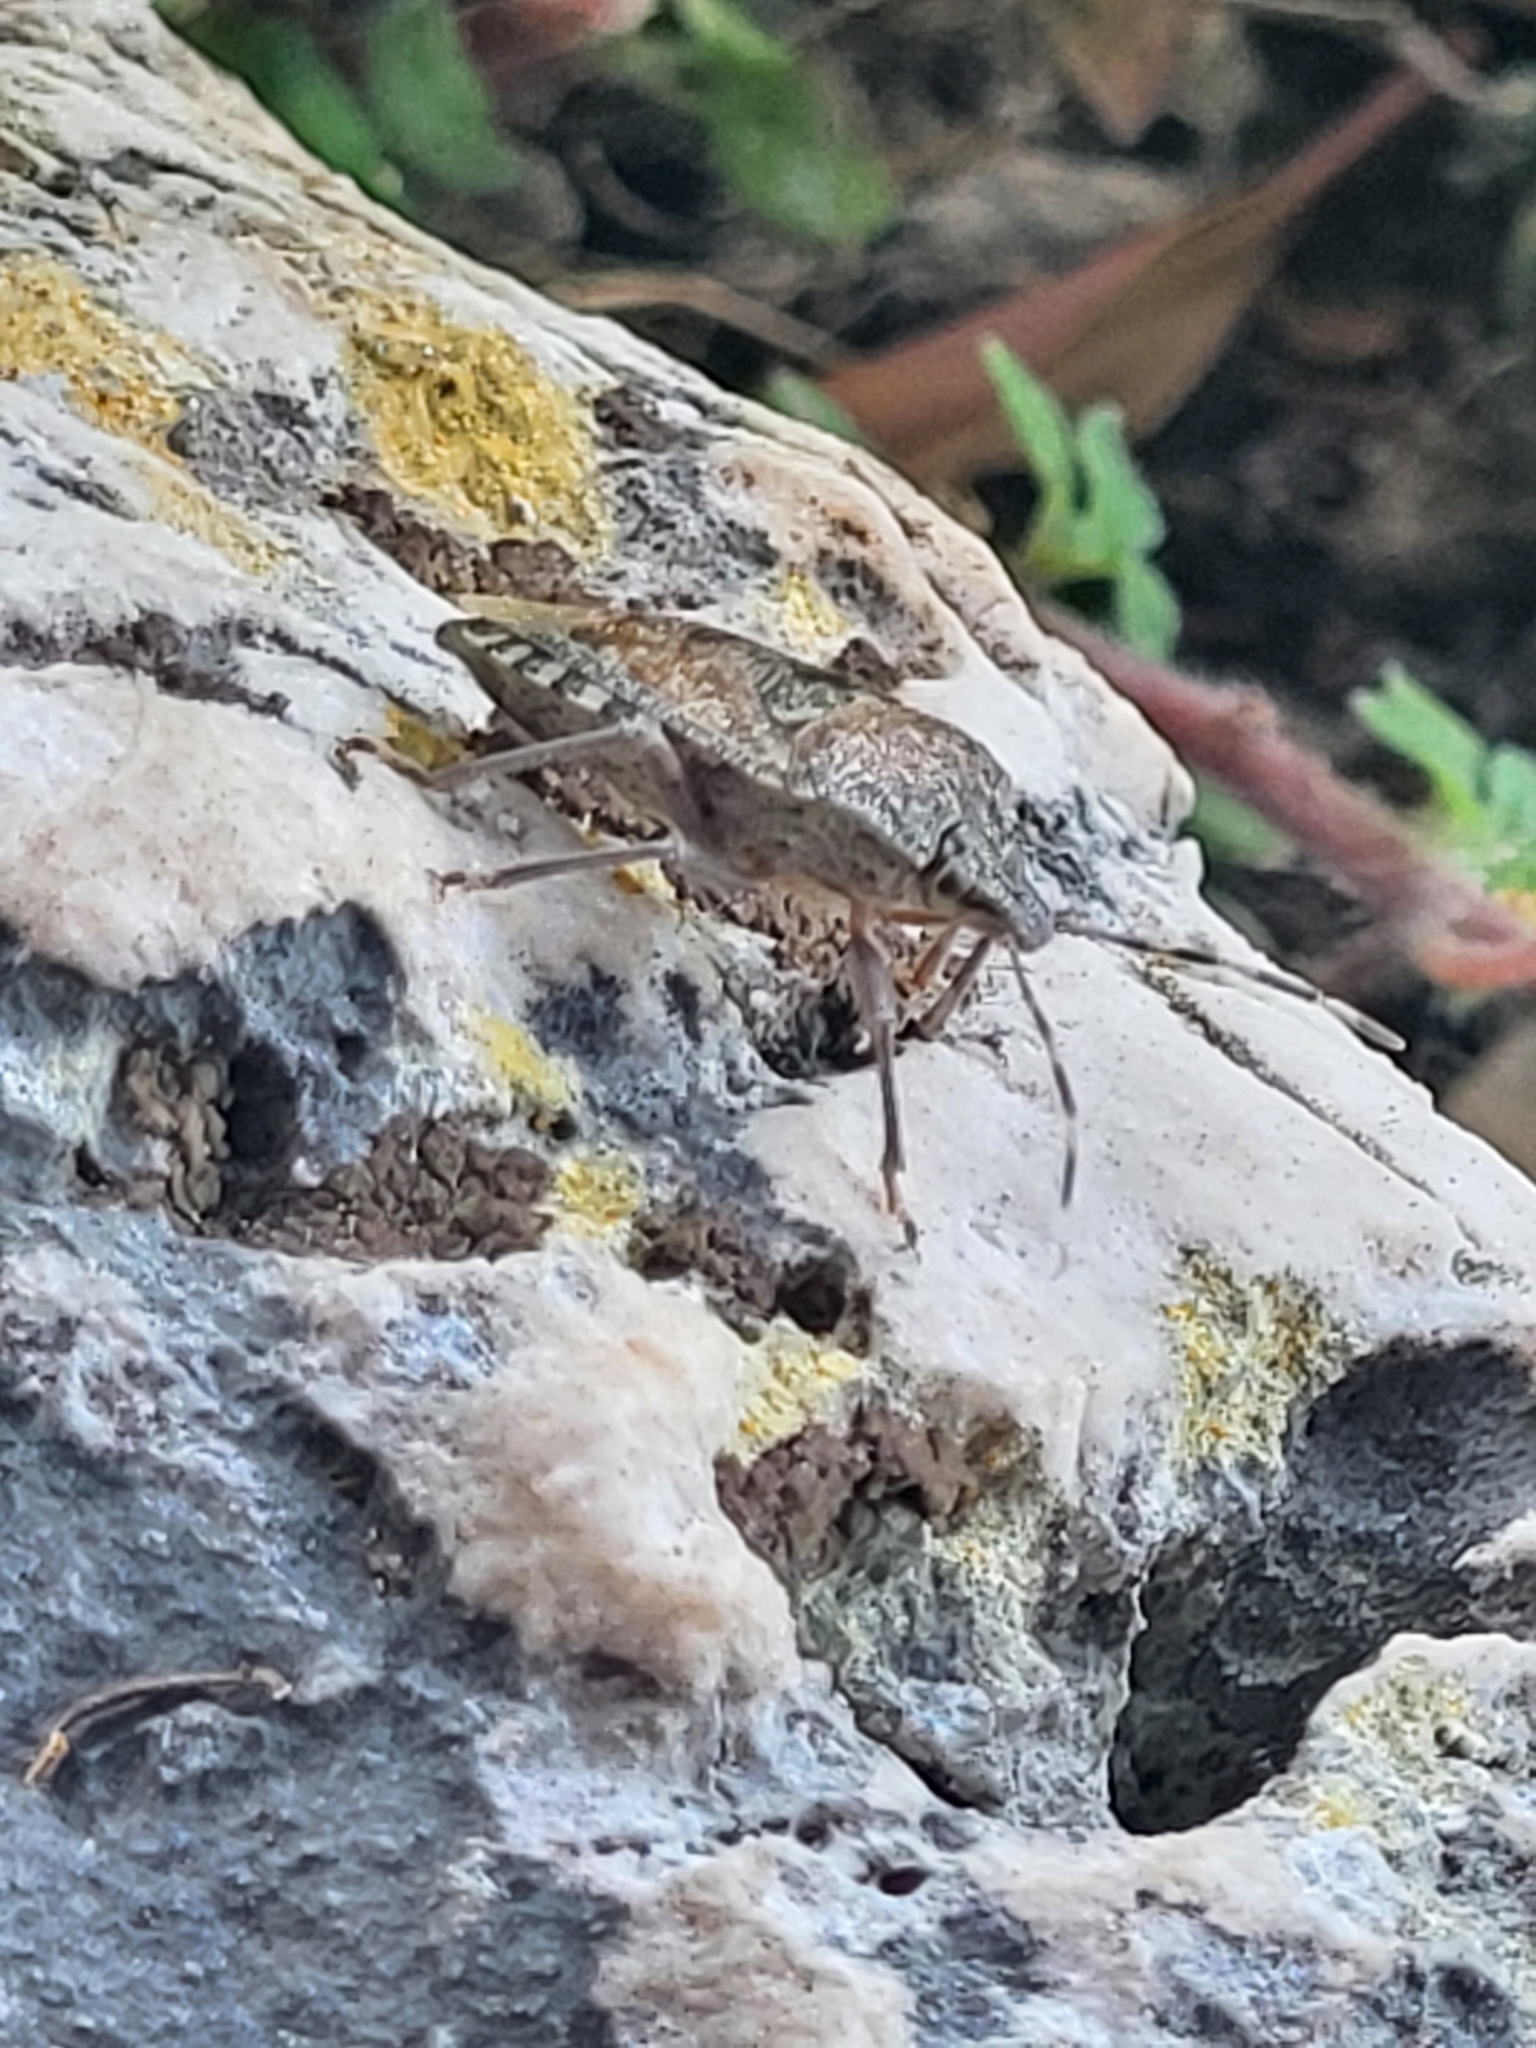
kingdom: Animalia
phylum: Arthropoda
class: Insecta
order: Hemiptera
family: Pentatomidae
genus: Rhaphigaster
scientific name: Rhaphigaster nebulosa
